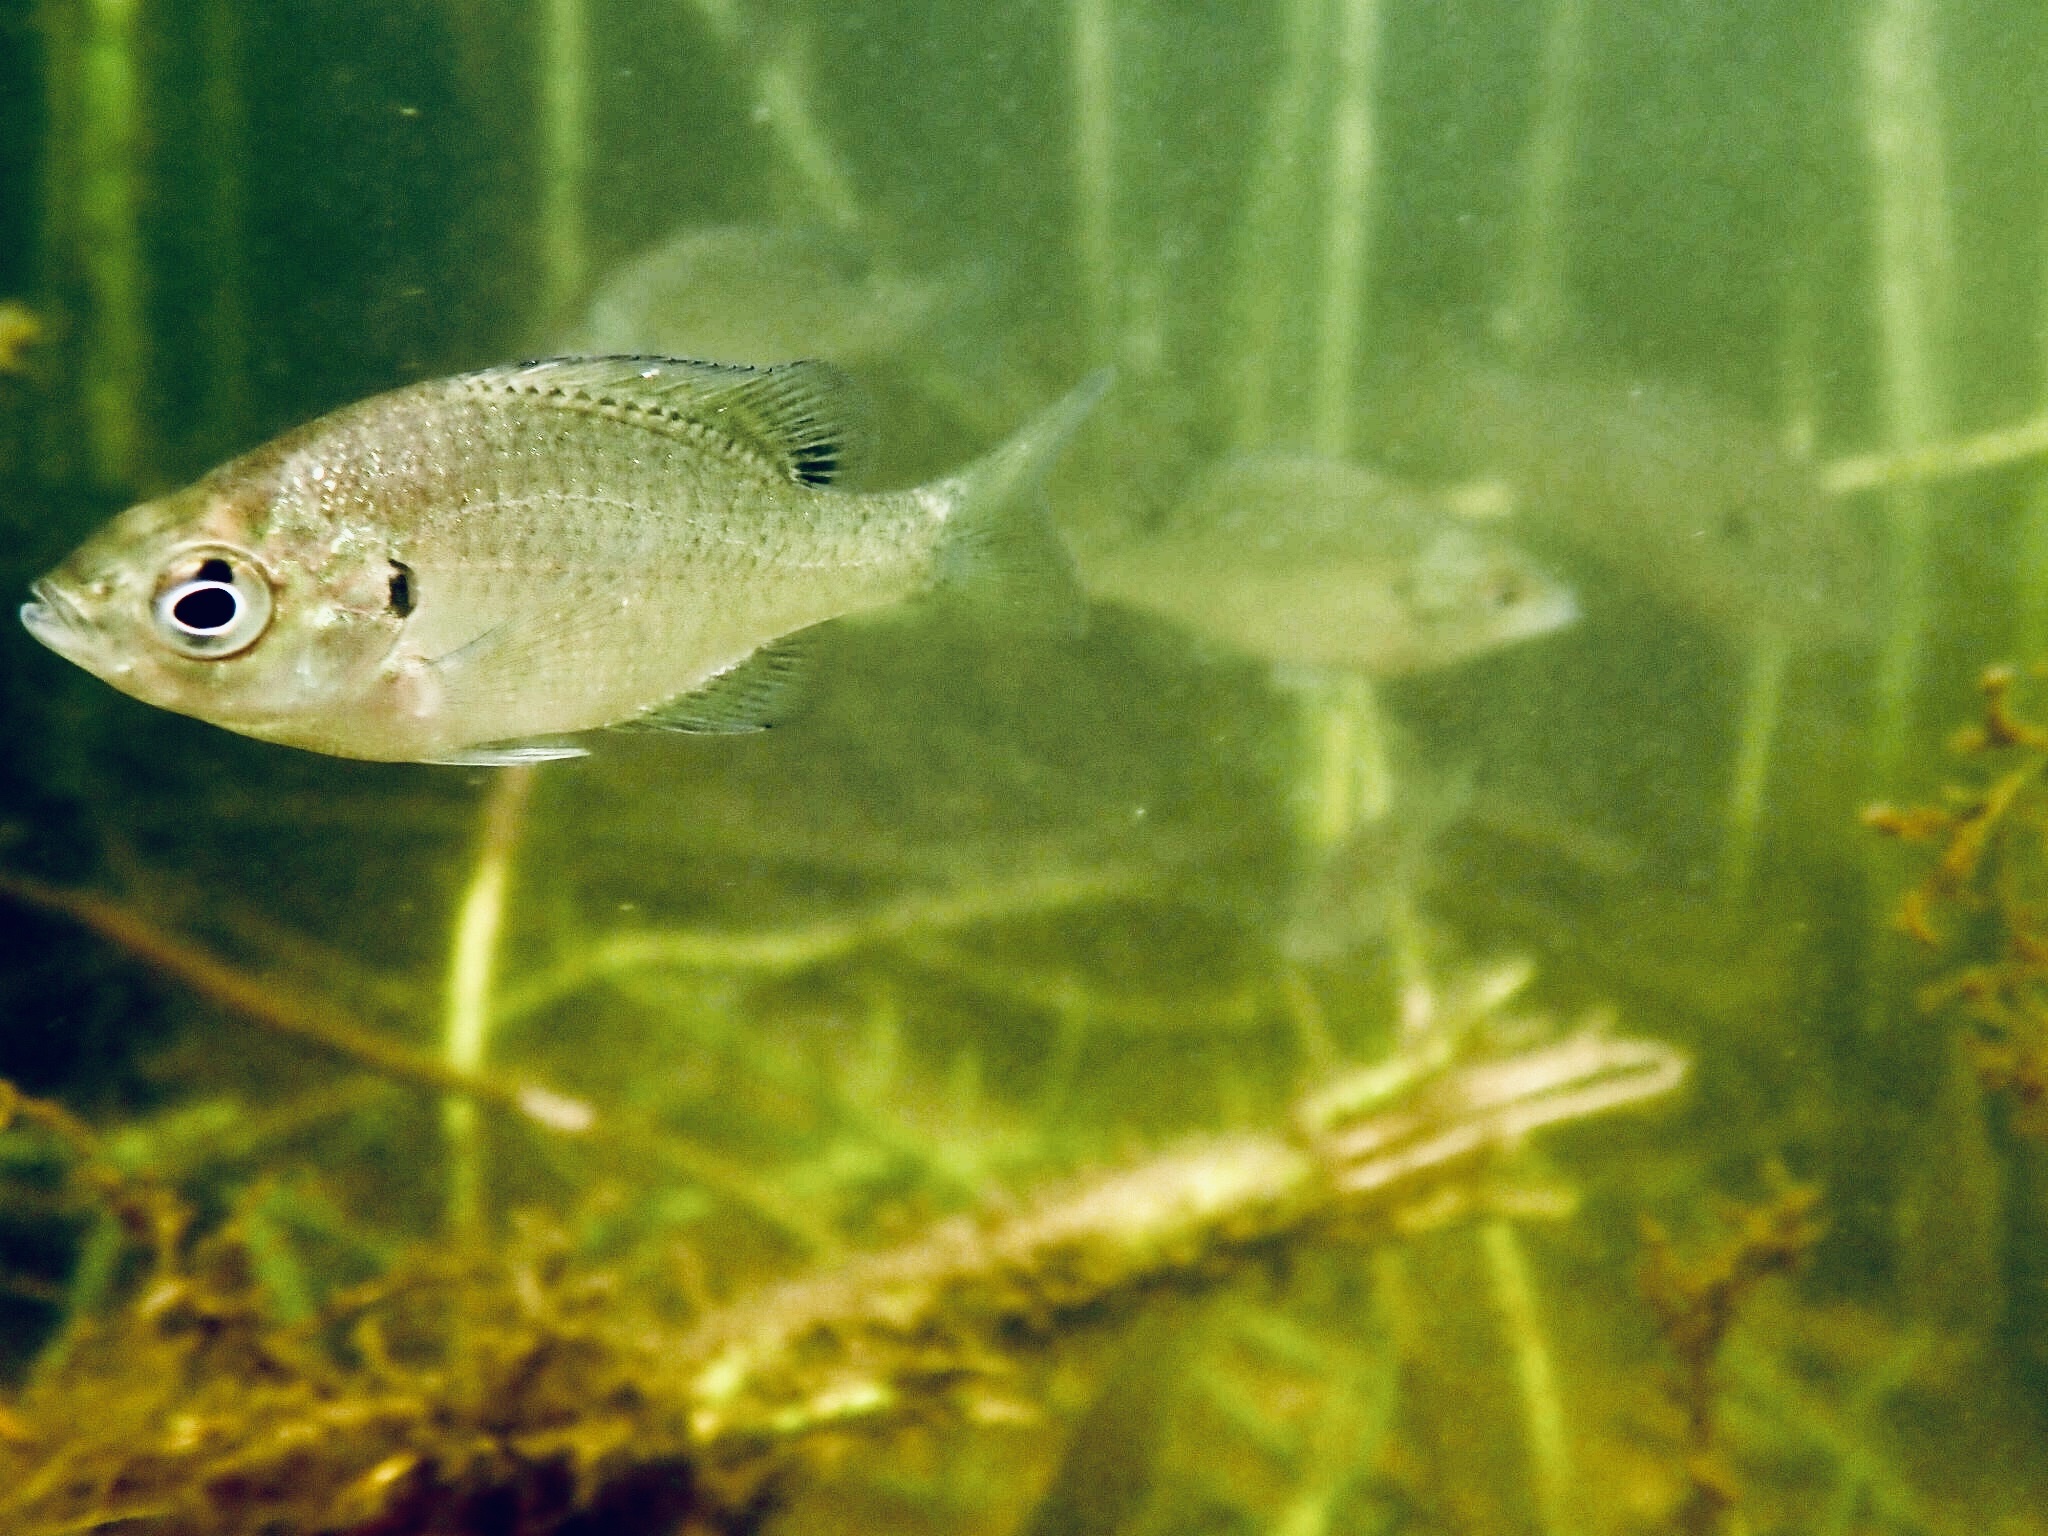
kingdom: Animalia
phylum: Chordata
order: Perciformes
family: Centrarchidae
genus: Lepomis
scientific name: Lepomis macrochirus
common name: Bluegill
